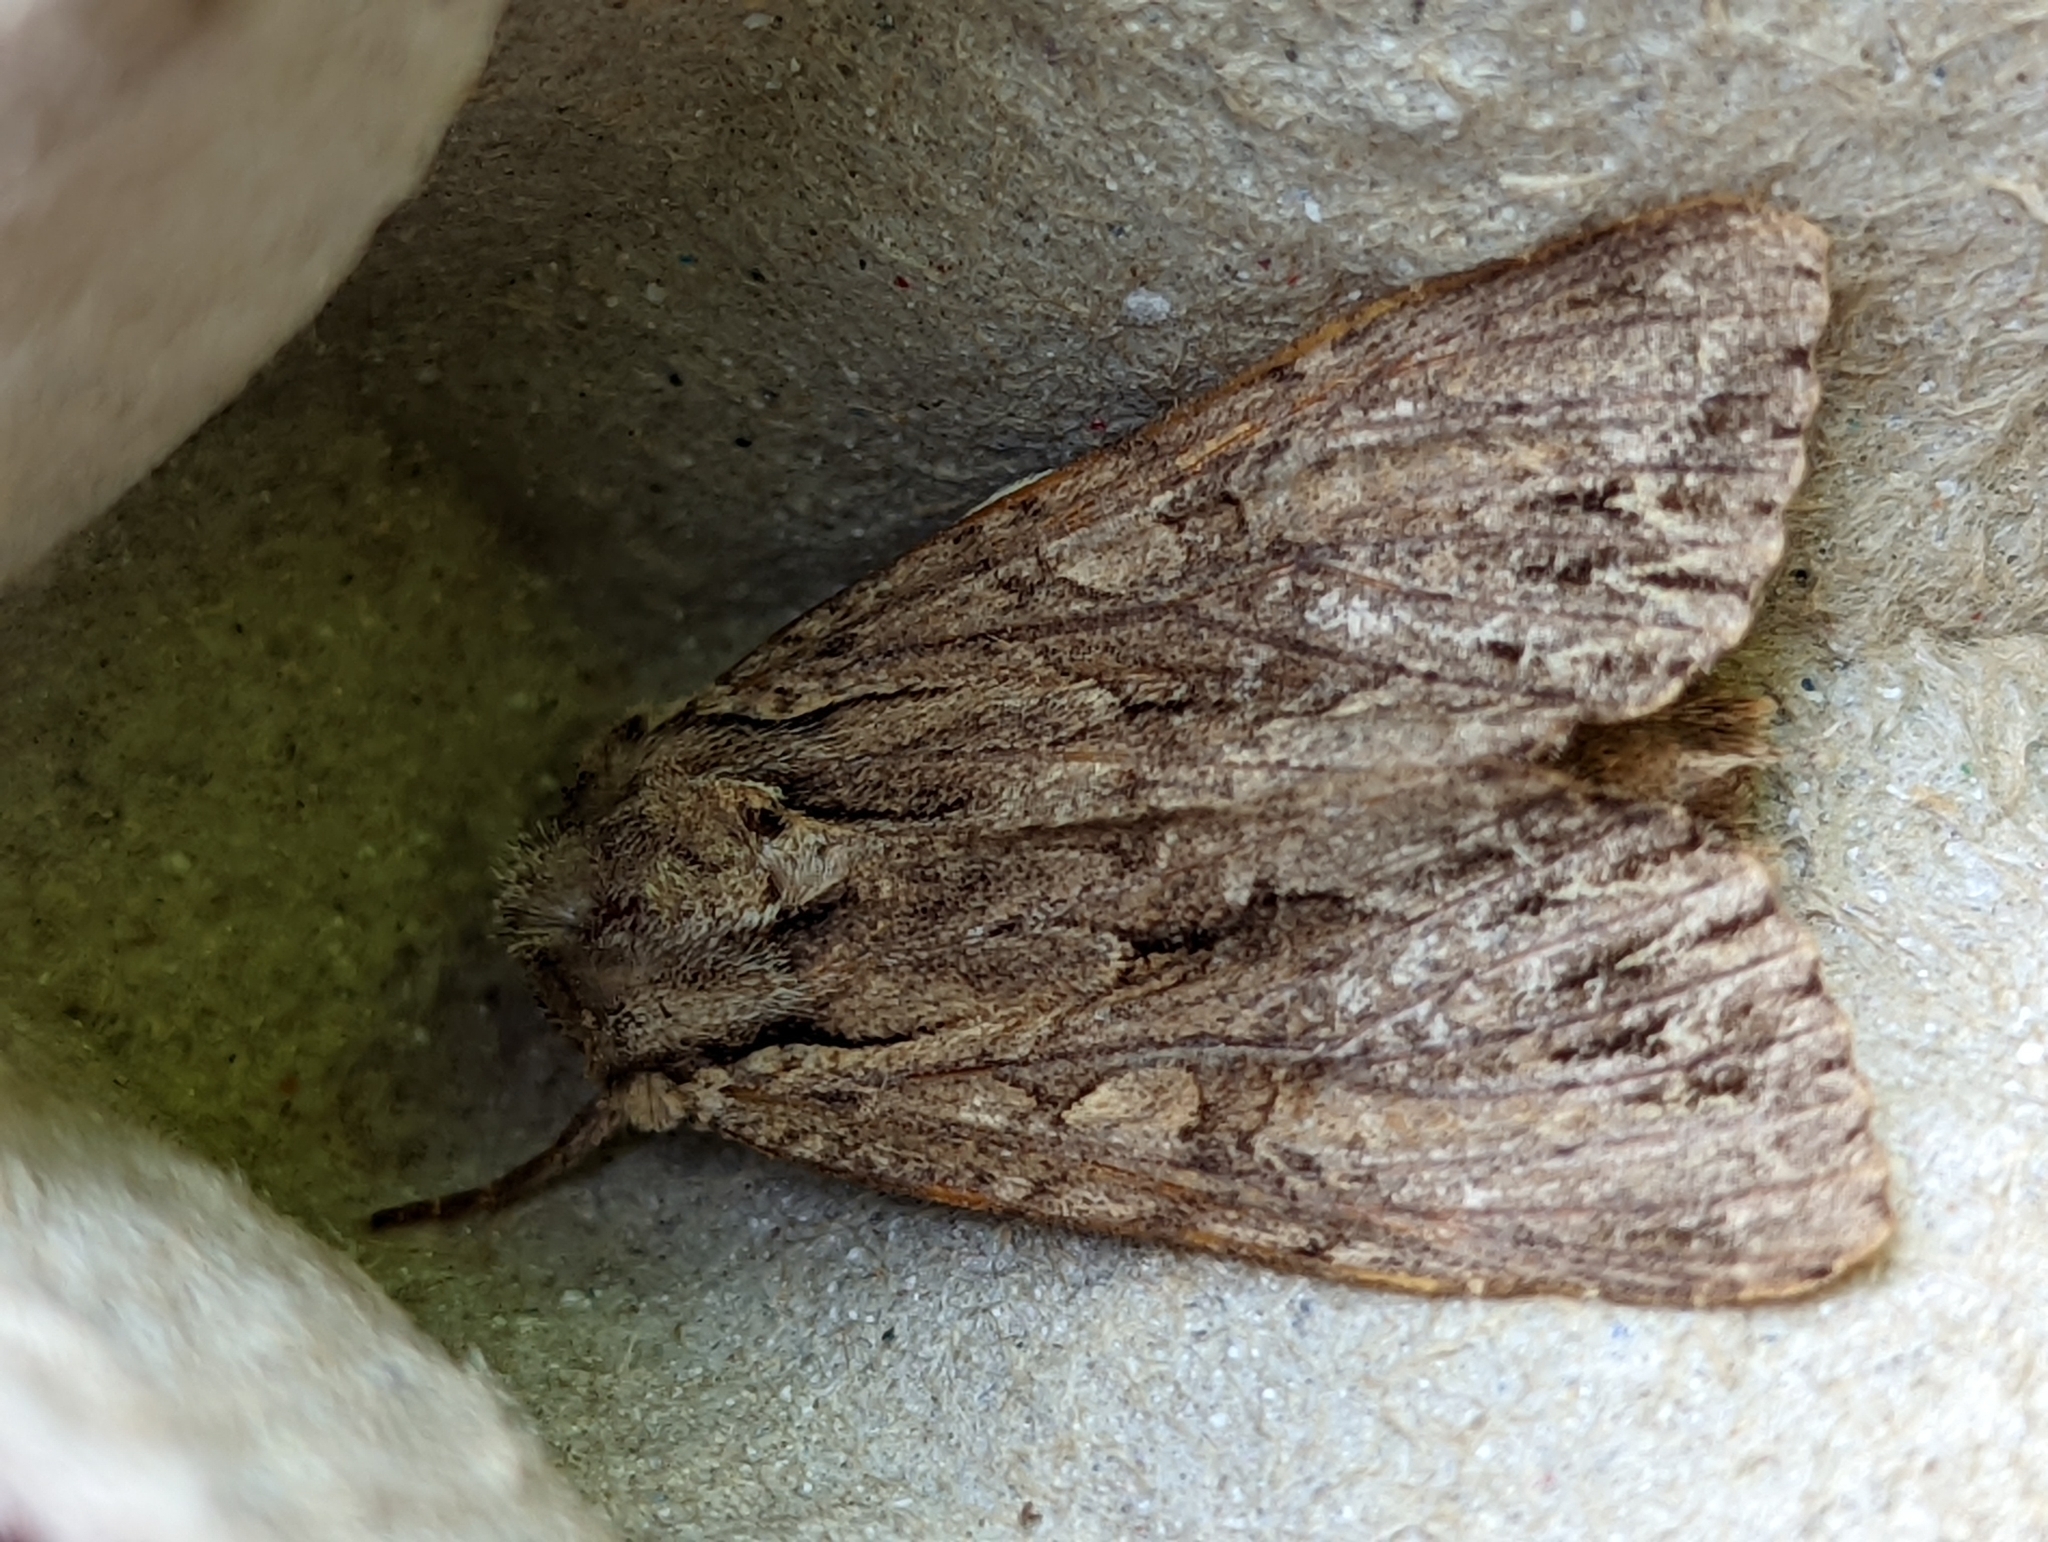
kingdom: Animalia
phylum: Arthropoda
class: Insecta
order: Lepidoptera
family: Noctuidae
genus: Apamea
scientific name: Apamea monoglypha
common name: Dark arches
